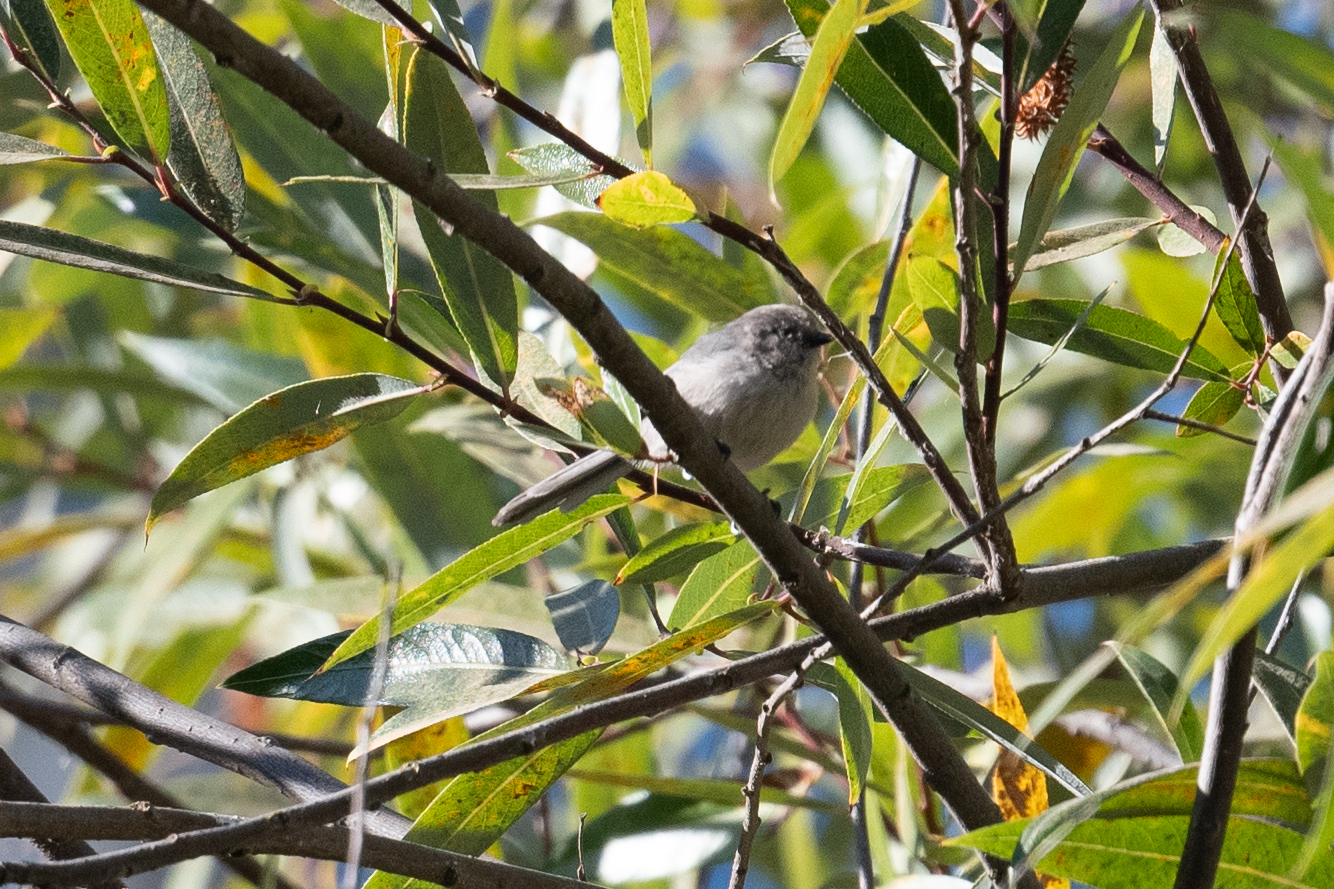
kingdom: Animalia
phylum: Chordata
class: Aves
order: Passeriformes
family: Aegithalidae
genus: Psaltriparus
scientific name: Psaltriparus minimus
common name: American bushtit
